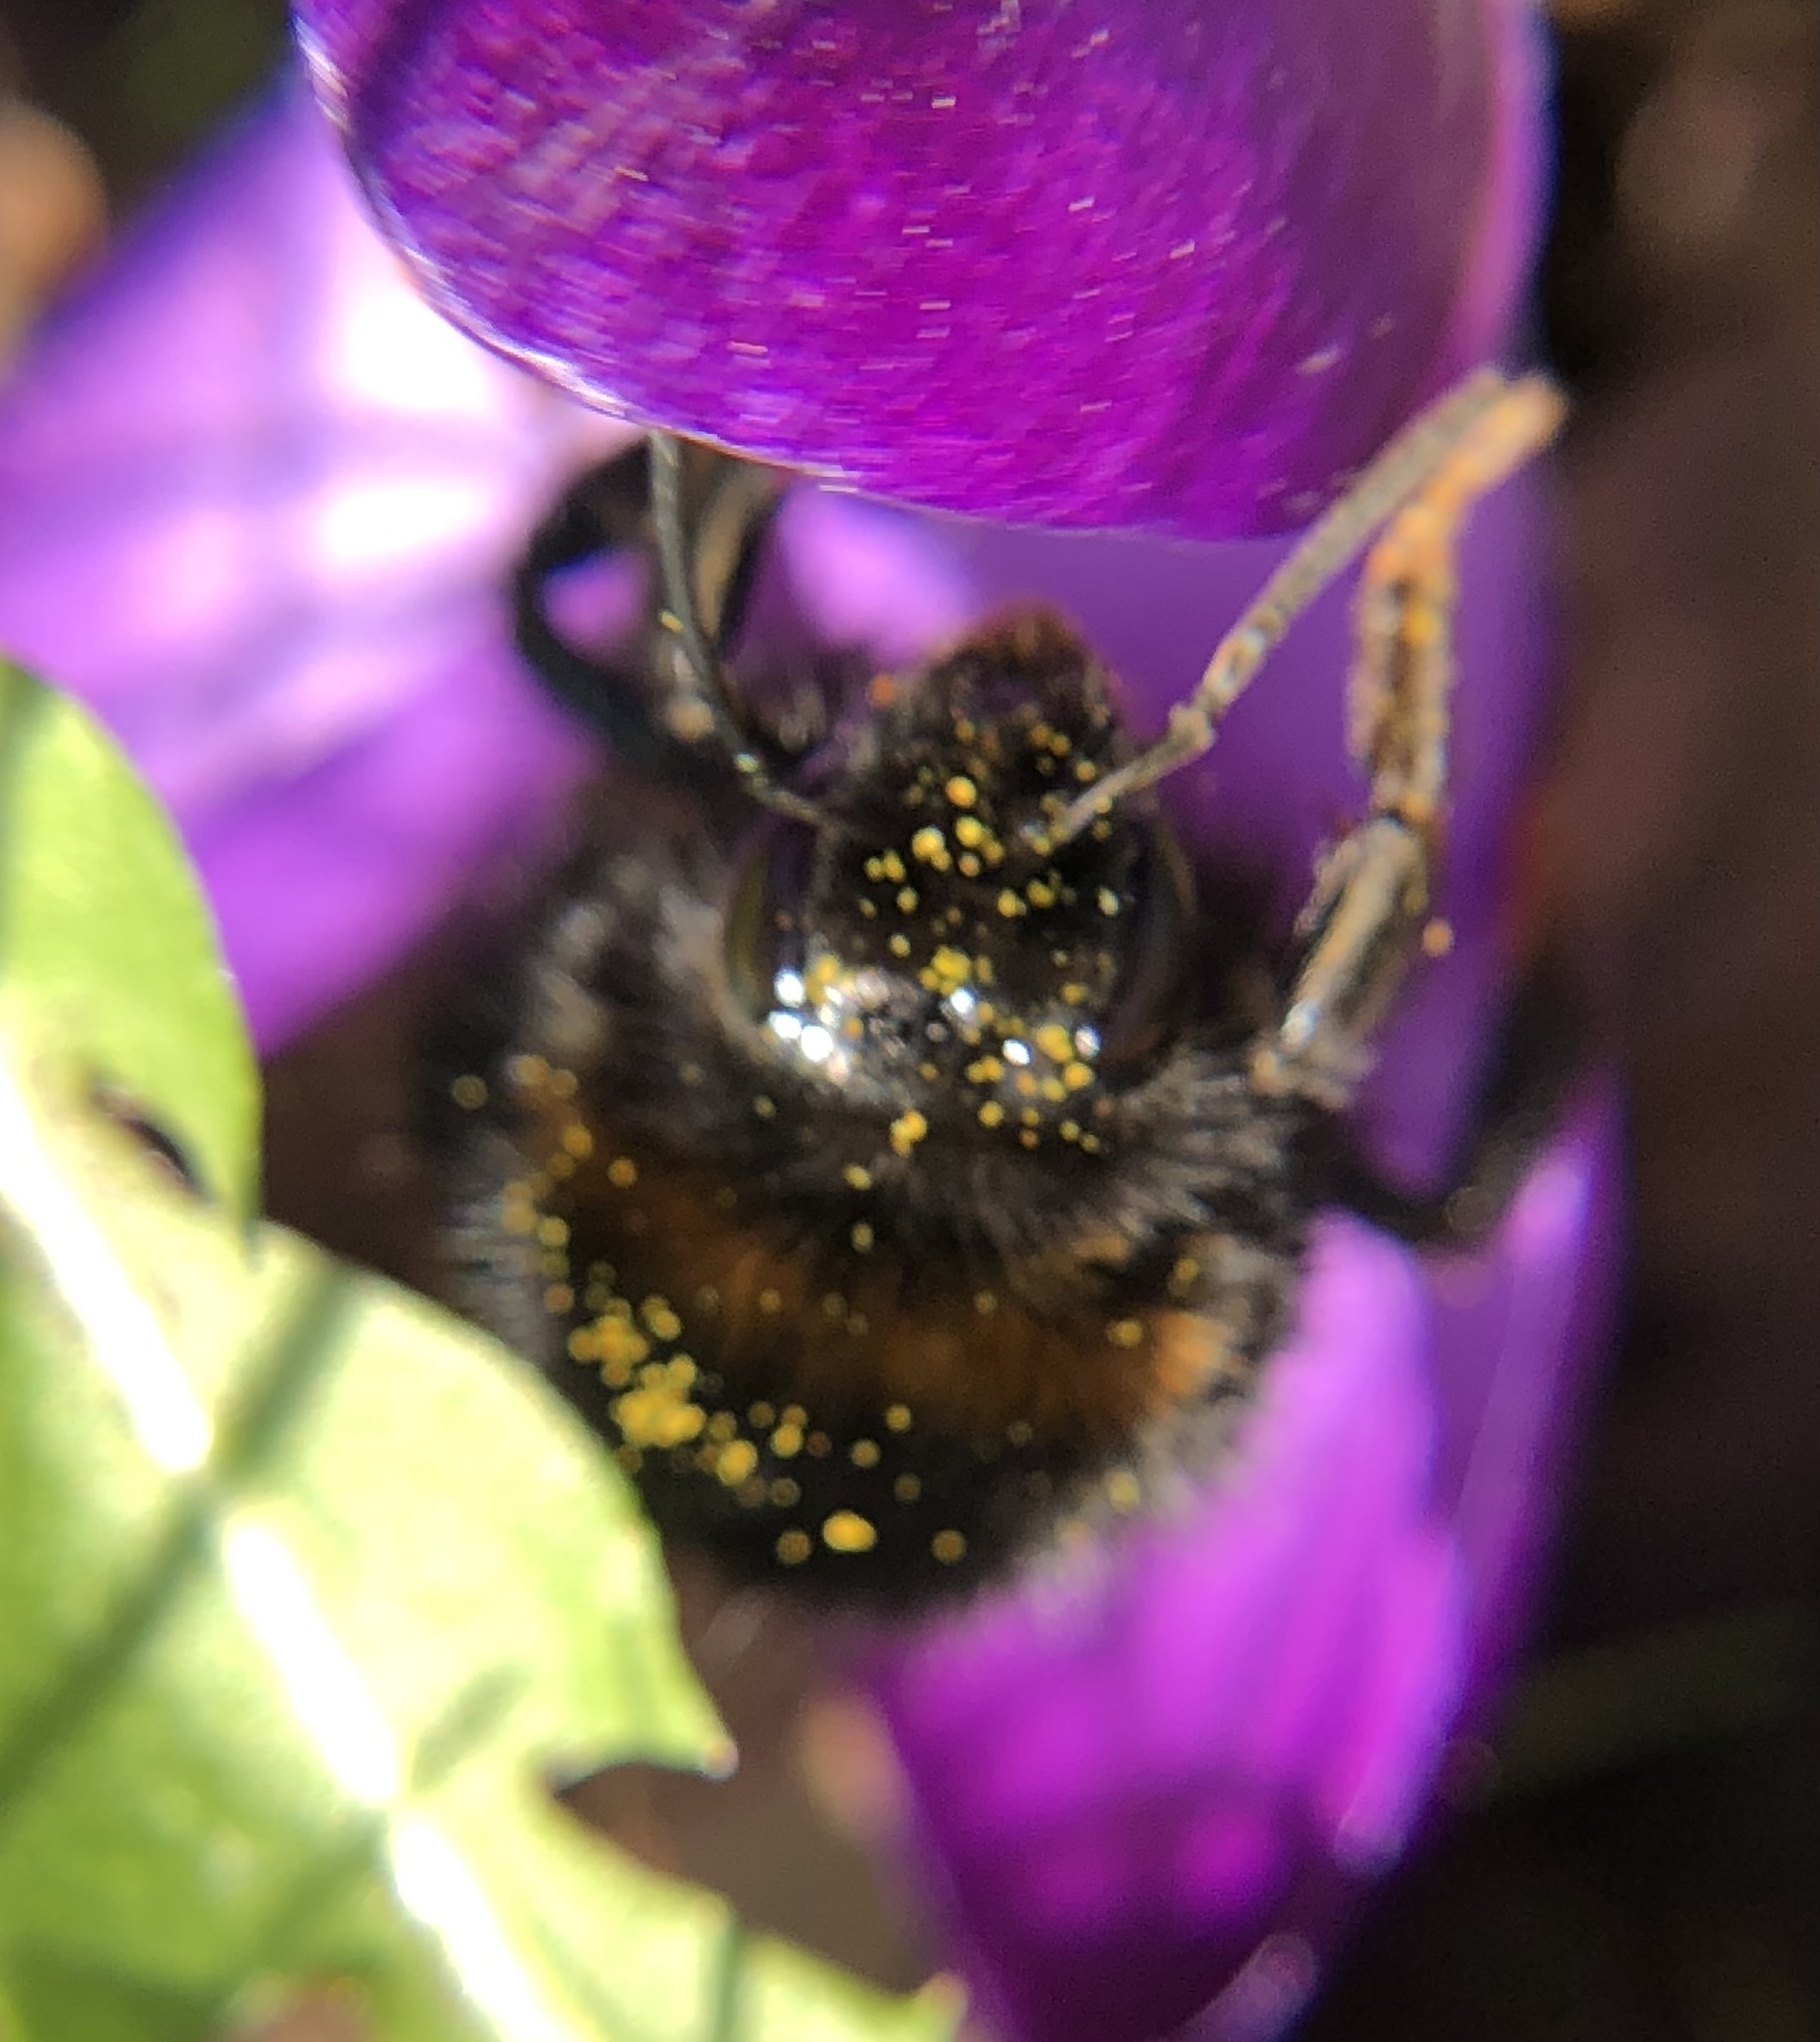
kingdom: Animalia
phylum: Arthropoda
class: Insecta
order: Hymenoptera
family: Apidae
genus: Bombus
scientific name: Bombus terrestris
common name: Buff-tailed bumblebee
